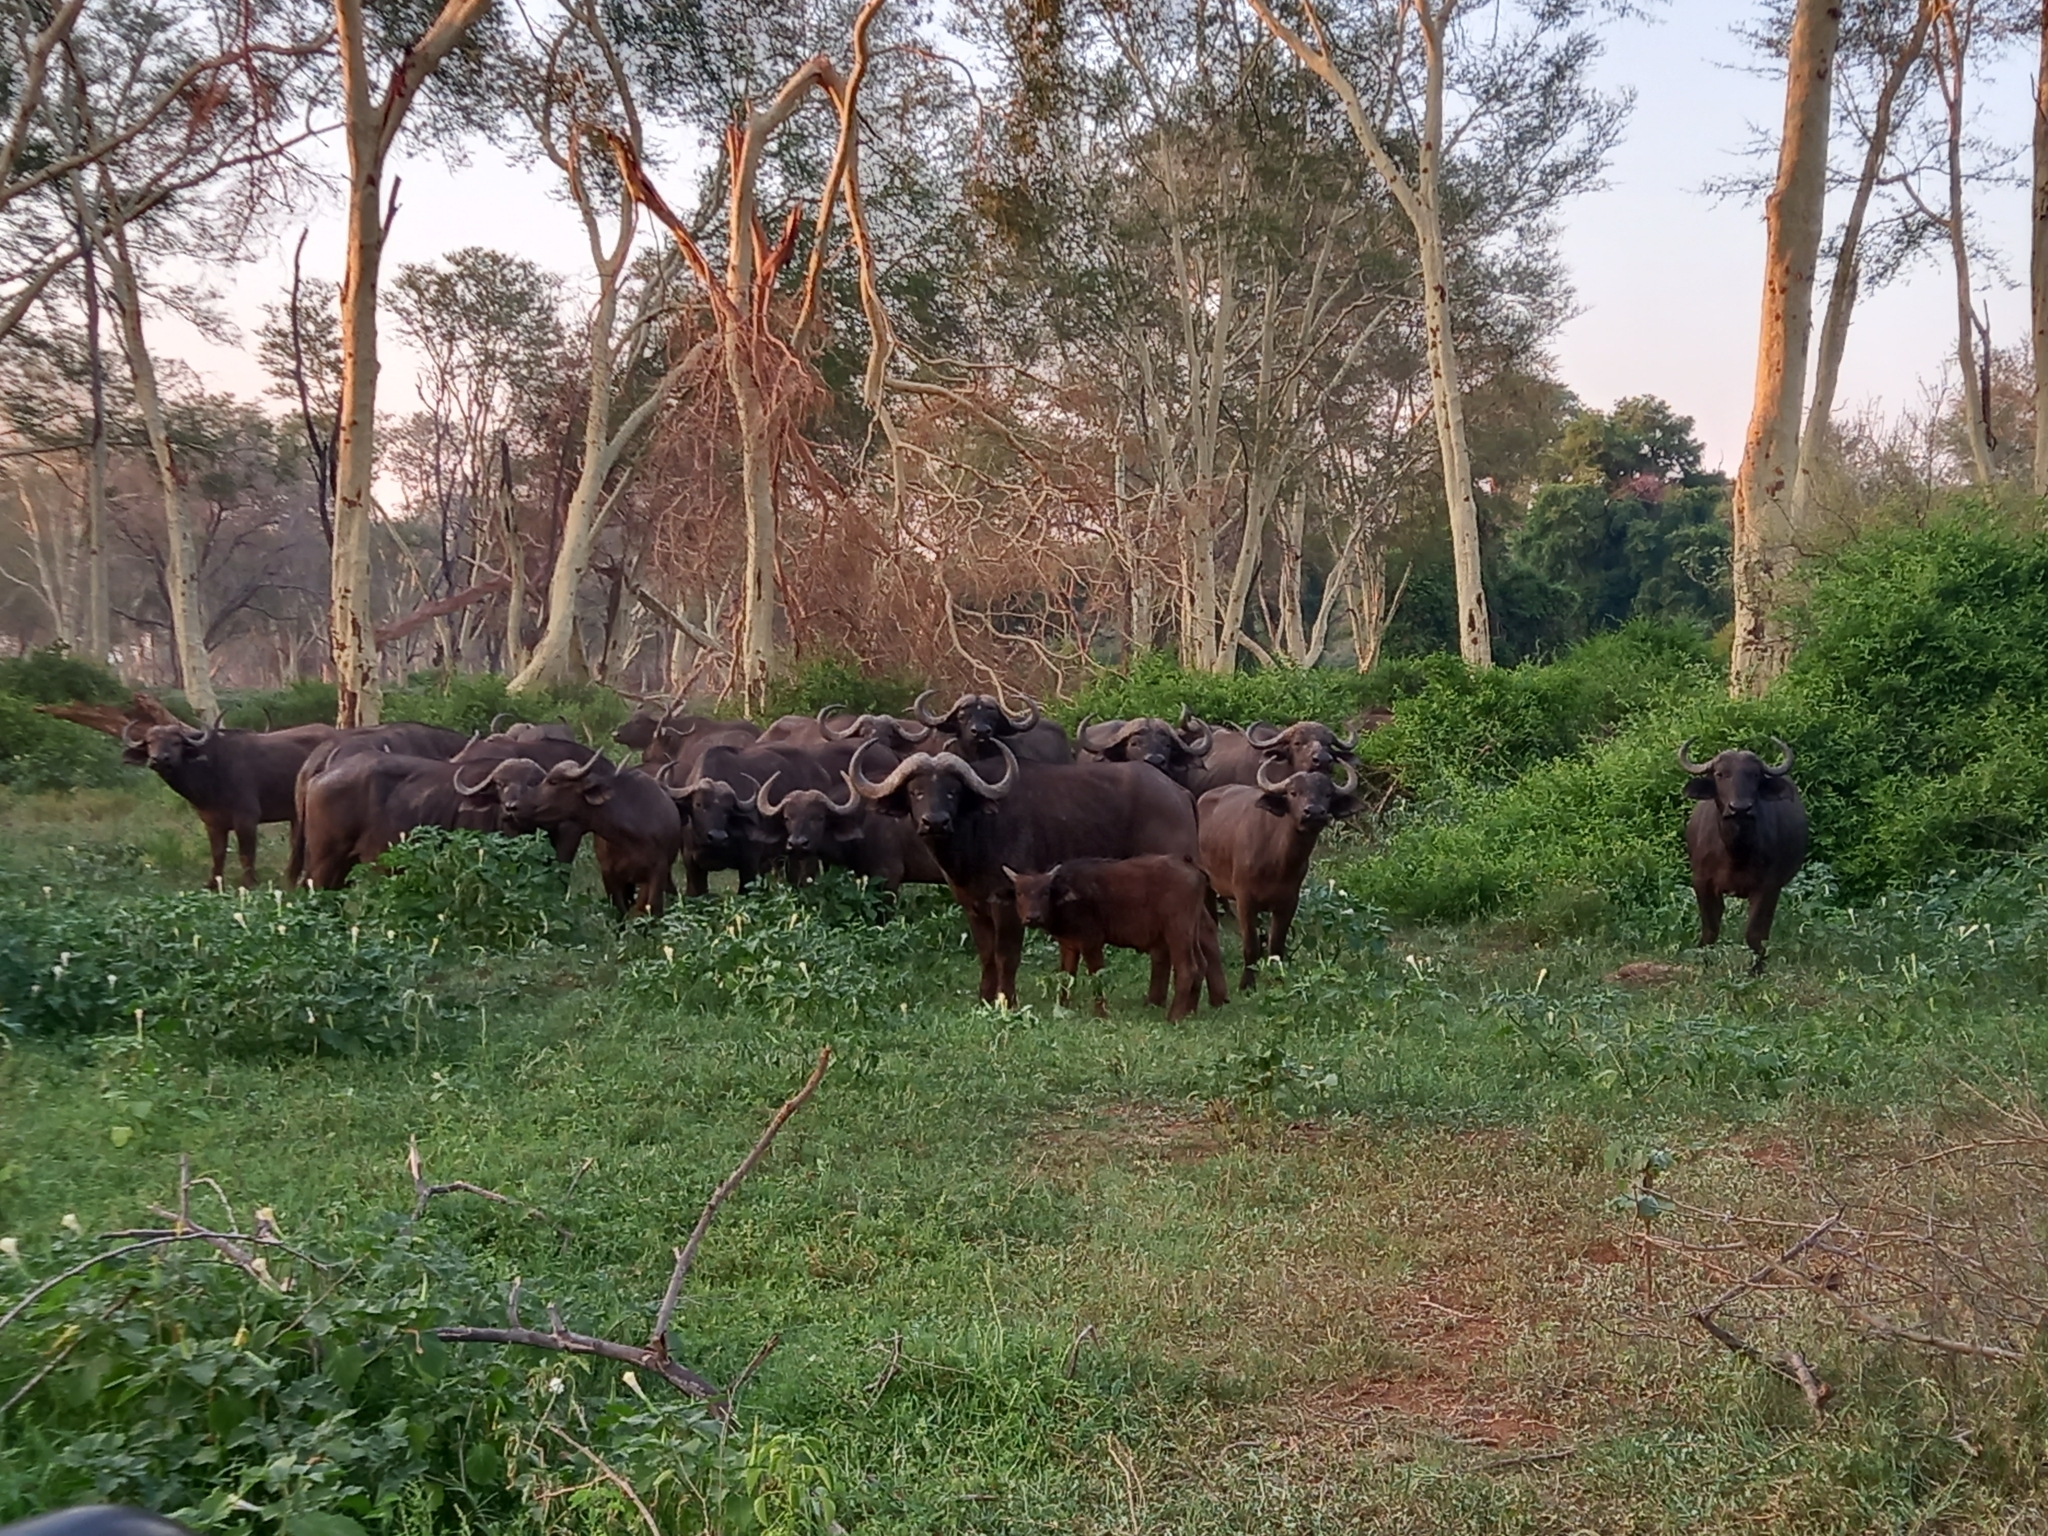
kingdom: Animalia
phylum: Chordata
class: Mammalia
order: Artiodactyla
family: Bovidae
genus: Syncerus
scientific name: Syncerus caffer
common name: African buffalo
